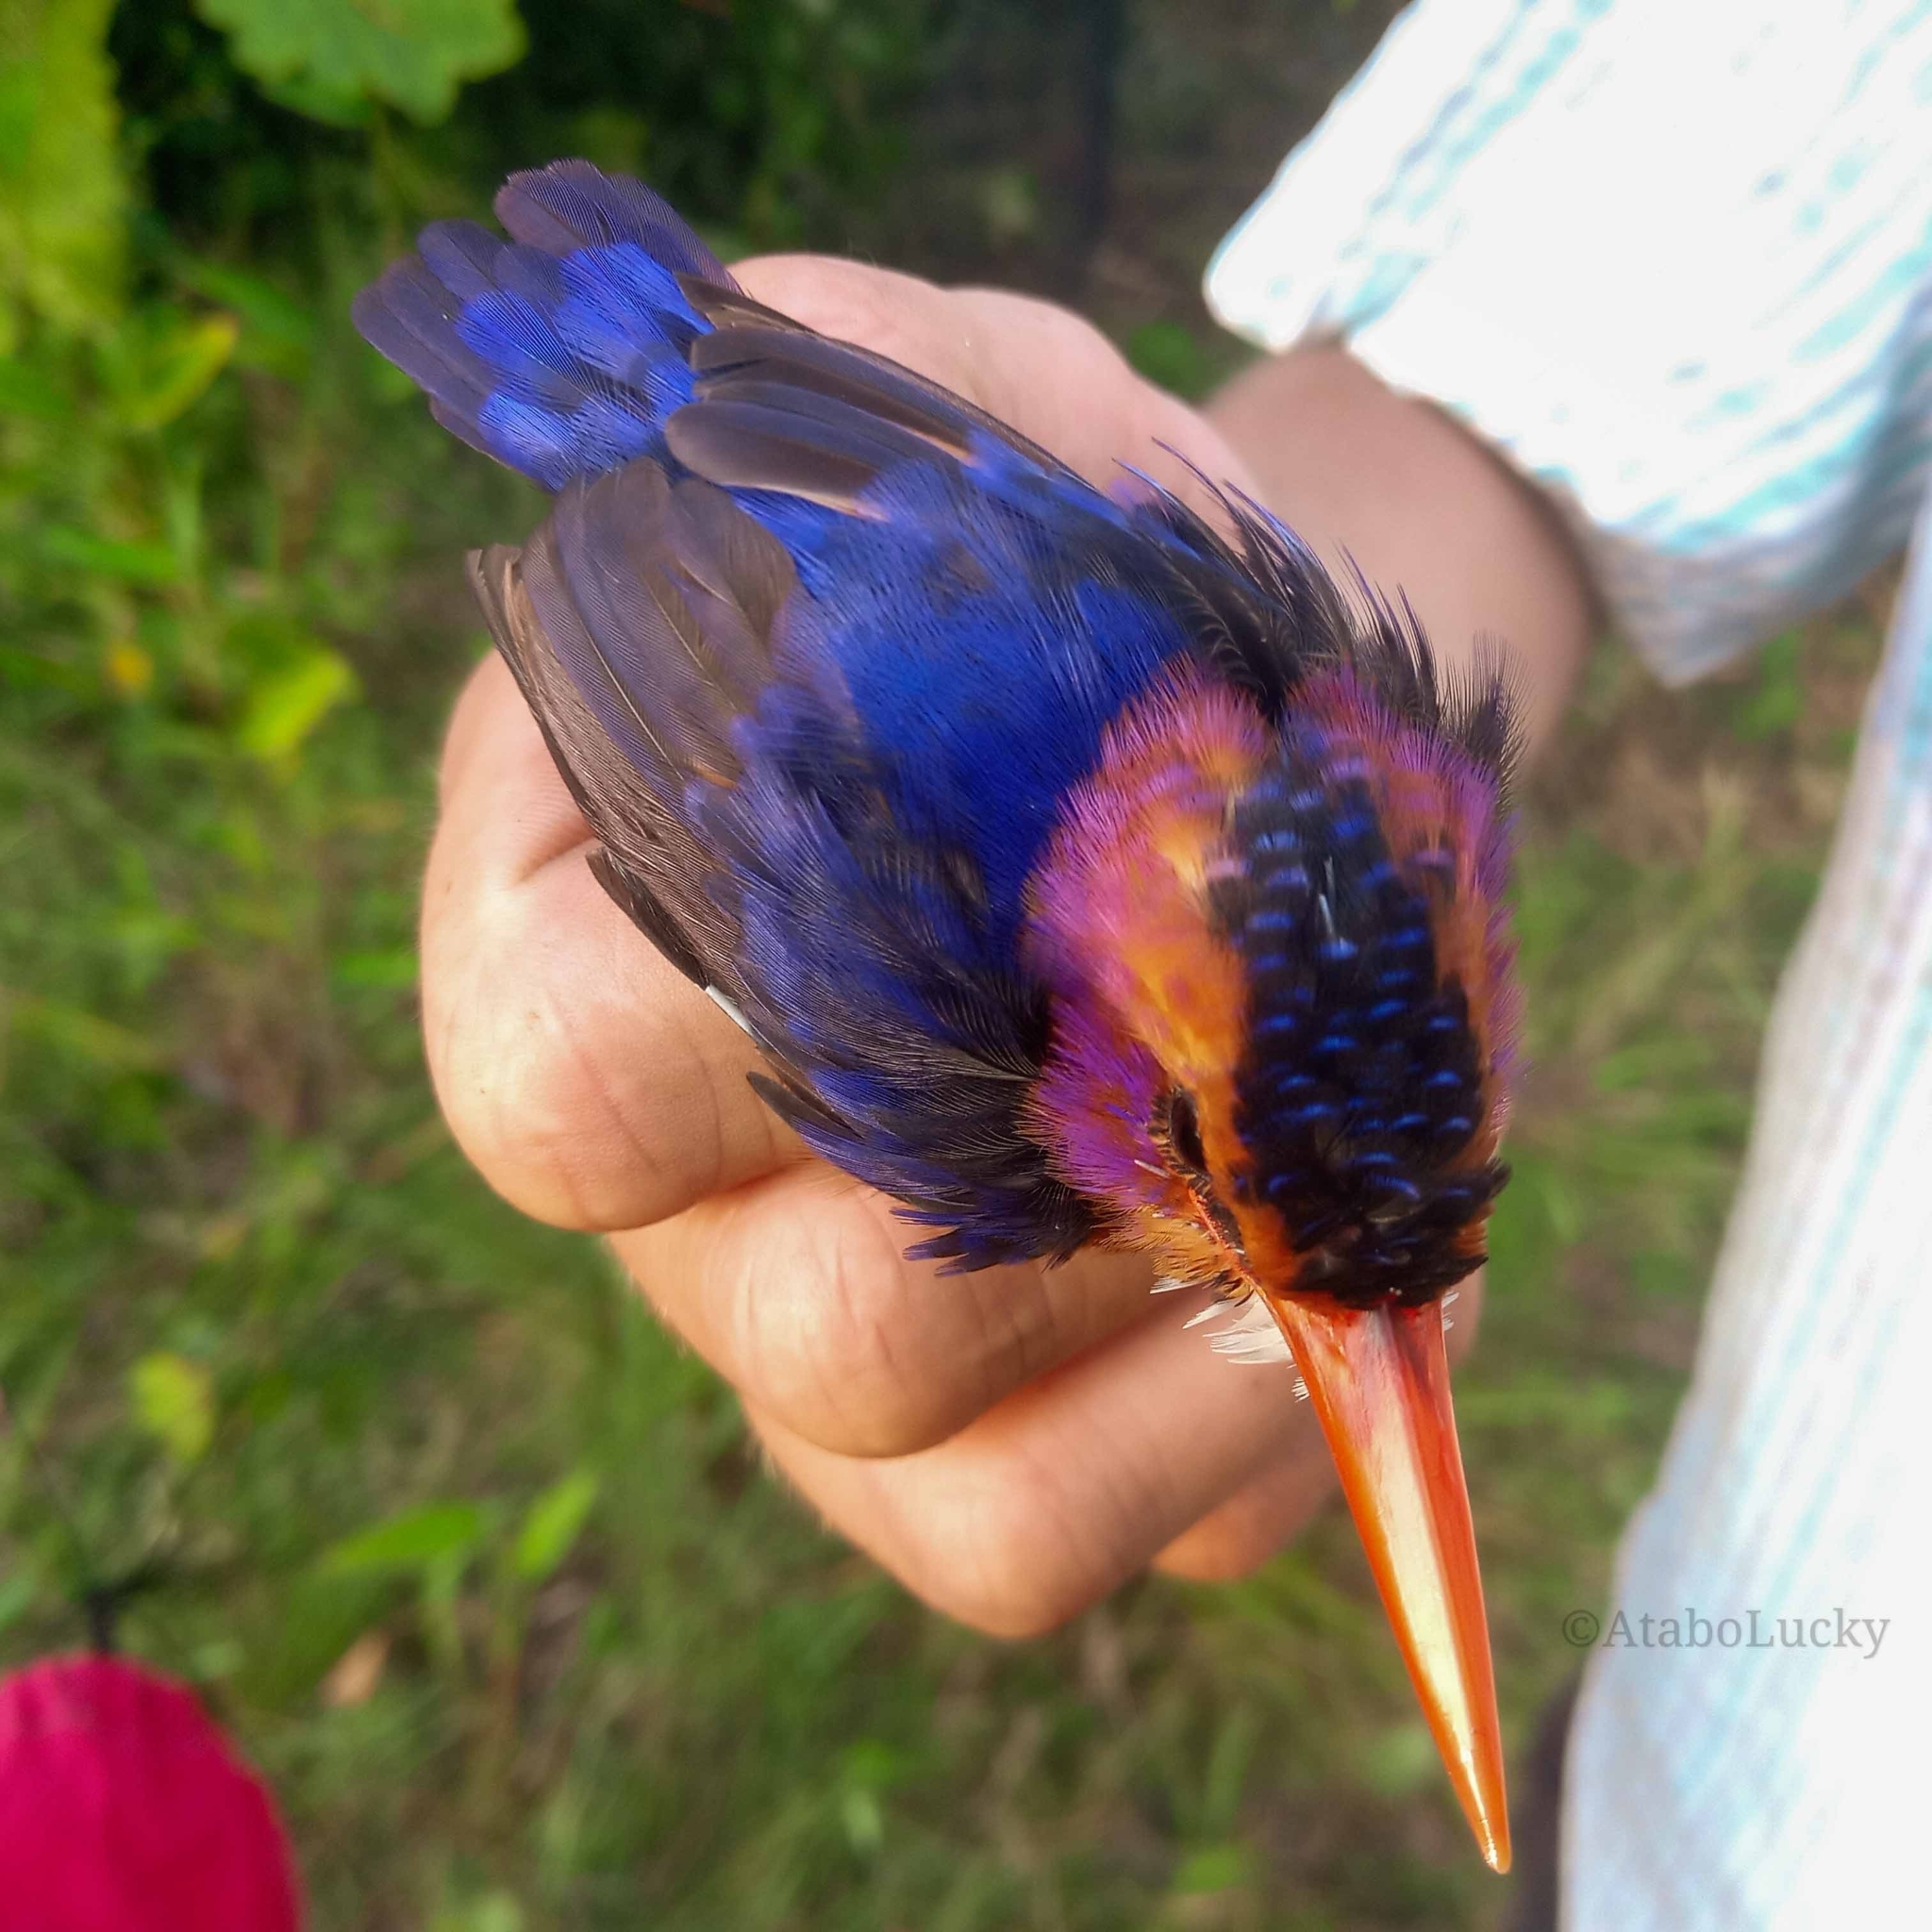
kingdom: Animalia
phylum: Chordata
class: Aves
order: Coraciiformes
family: Alcedinidae
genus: Ispidina
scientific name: Ispidina picta
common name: African pygmy-kingfisher
